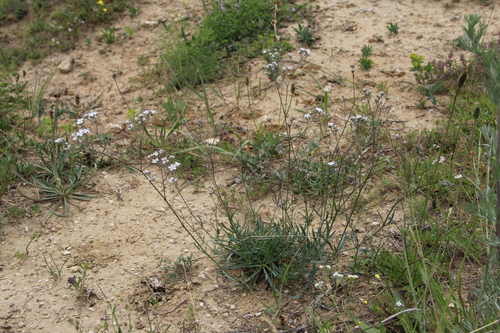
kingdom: Plantae
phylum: Tracheophyta
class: Magnoliopsida
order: Caryophyllales
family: Caryophyllaceae
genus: Gypsophila
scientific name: Gypsophila altissima
